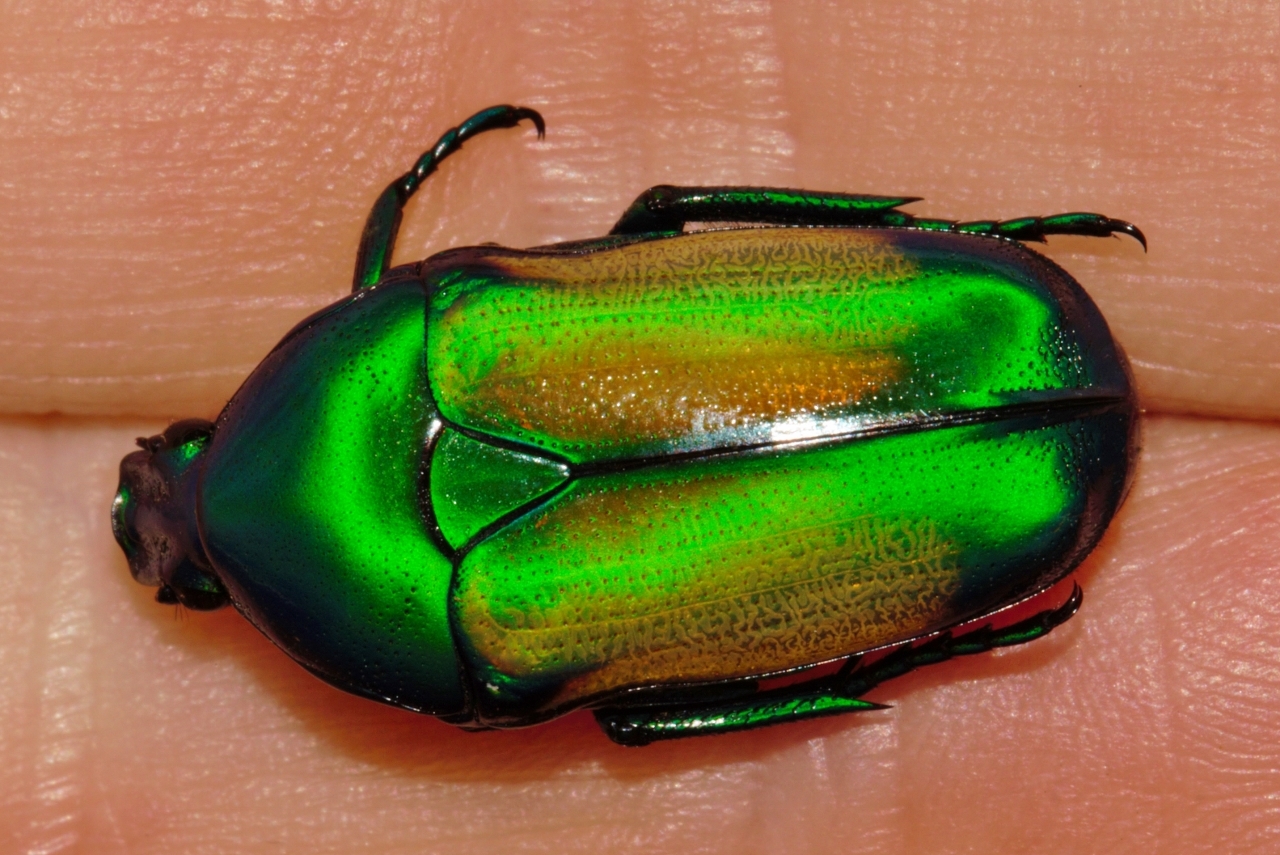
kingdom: Animalia
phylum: Arthropoda
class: Insecta
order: Coleoptera
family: Scarabaeidae
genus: Chlorocala
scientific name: Chlorocala africana
